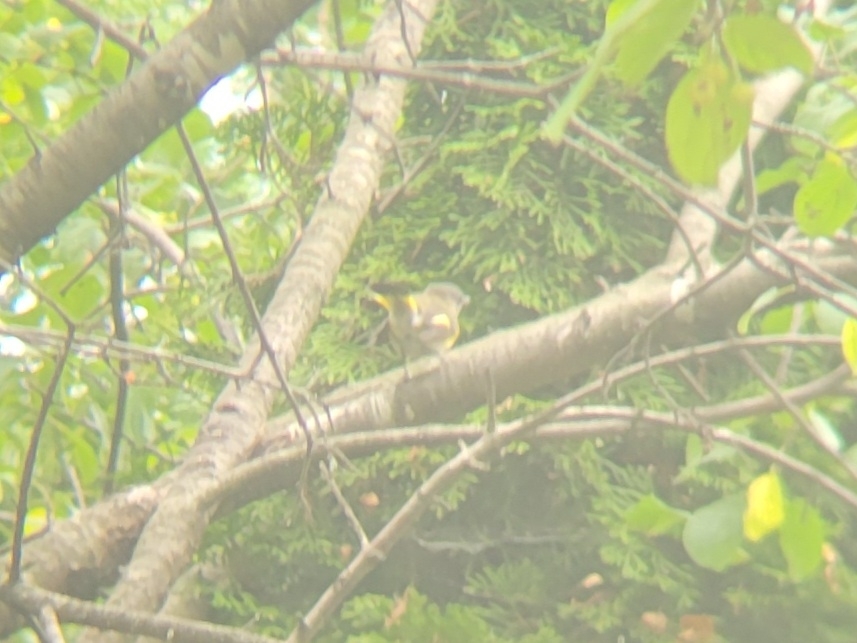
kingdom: Animalia
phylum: Chordata
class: Aves
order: Passeriformes
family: Parulidae
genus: Setophaga
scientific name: Setophaga ruticilla
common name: American redstart
